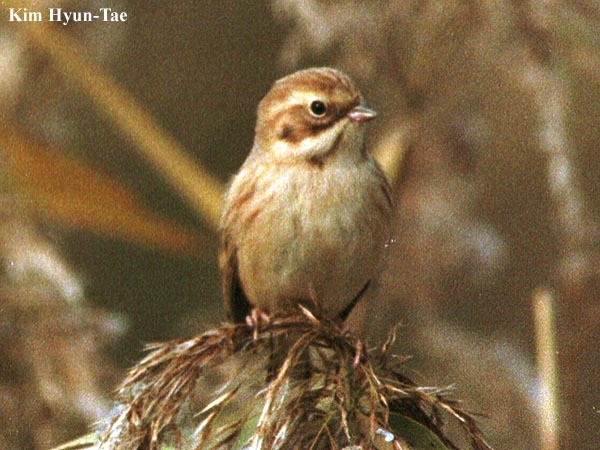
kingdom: Animalia
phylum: Chordata
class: Aves
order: Passeriformes
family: Emberizidae
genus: Emberiza
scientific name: Emberiza pallasi
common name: Pallas's reed bunting
